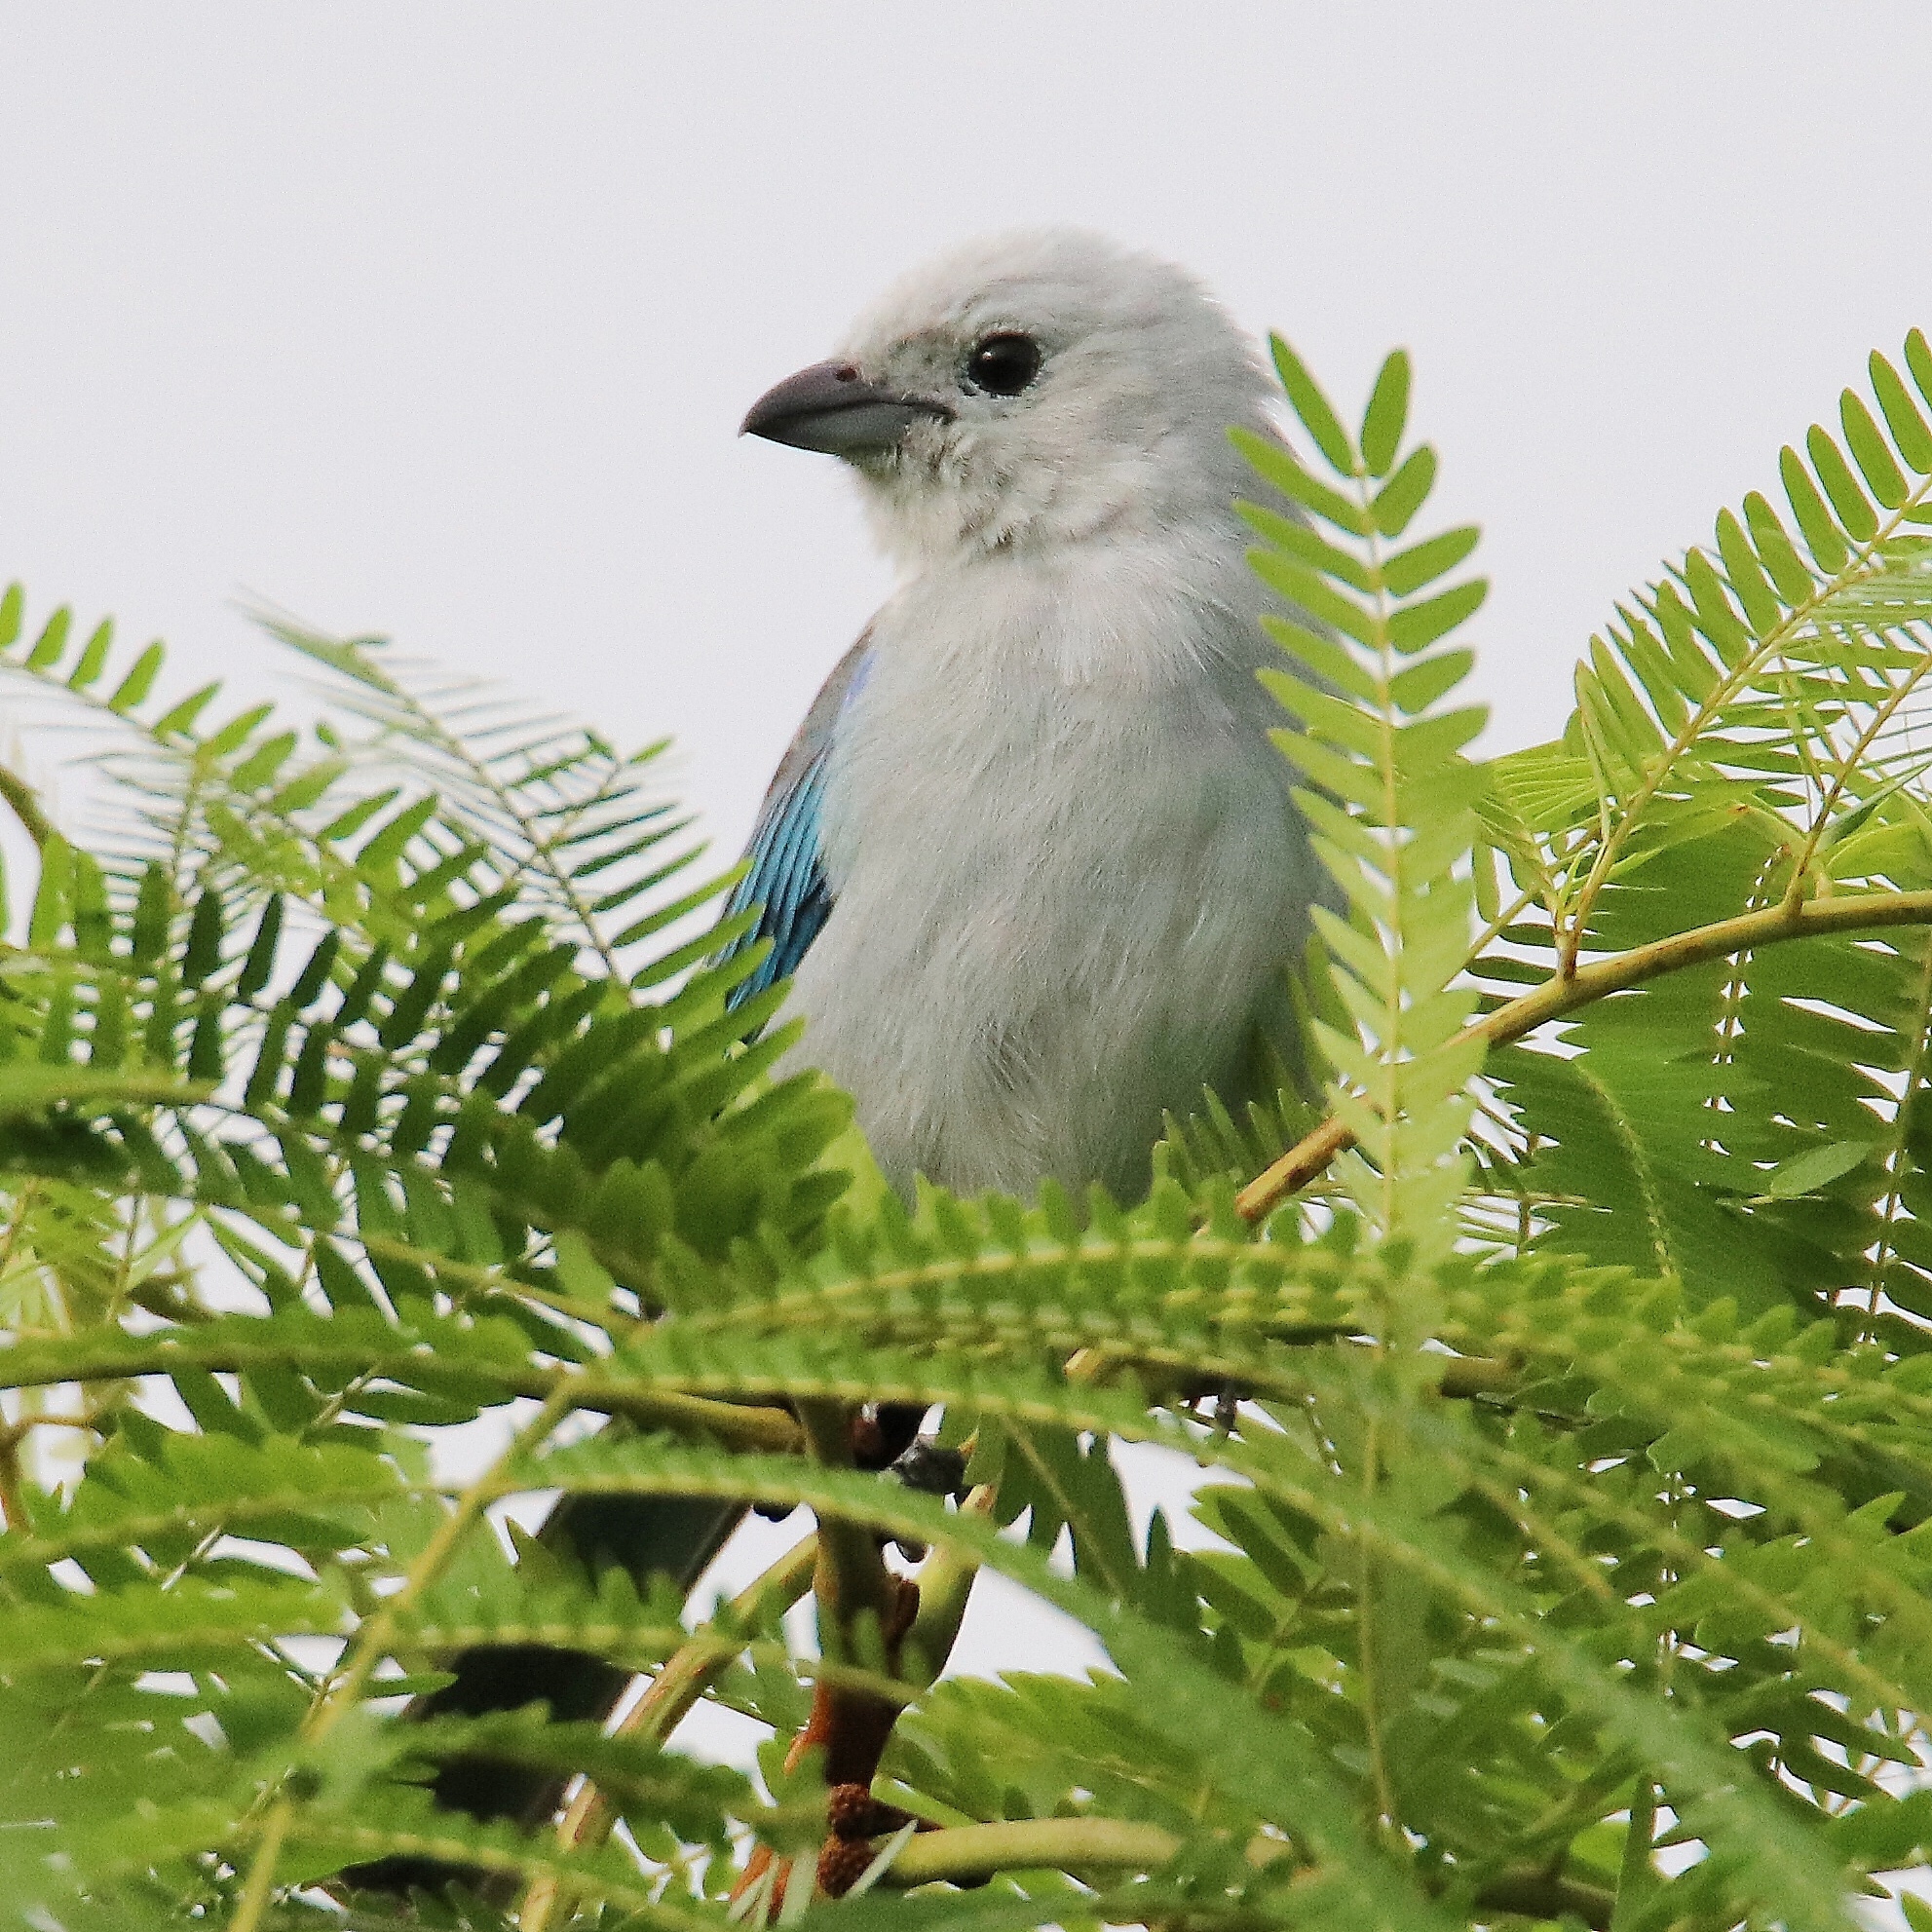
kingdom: Animalia
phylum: Chordata
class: Aves
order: Passeriformes
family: Thraupidae
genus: Thraupis
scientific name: Thraupis episcopus
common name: Blue-grey tanager
